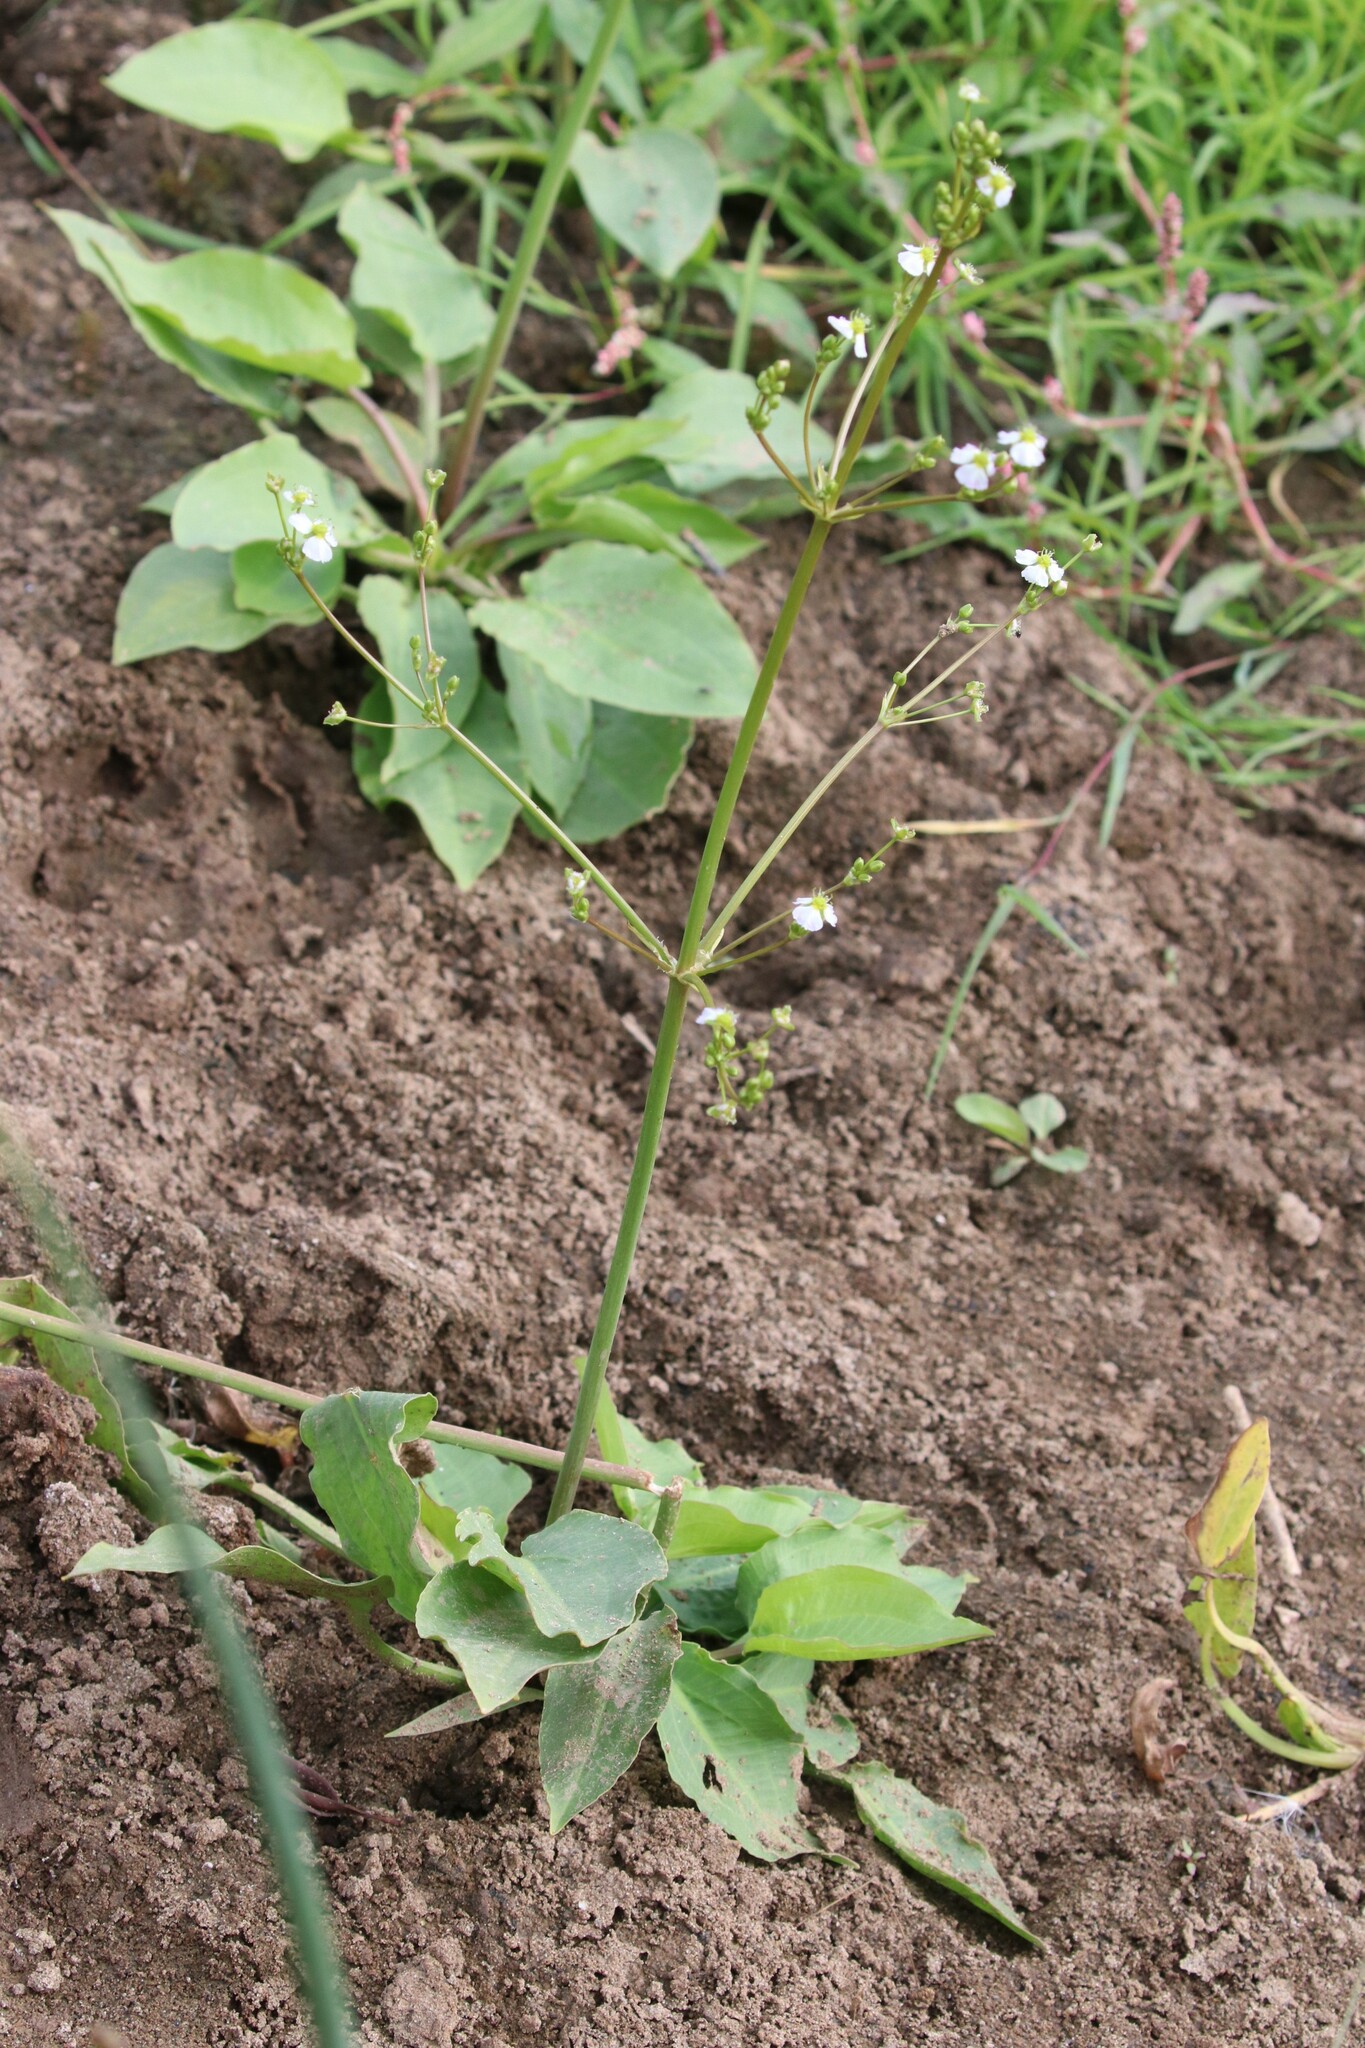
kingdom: Plantae
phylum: Tracheophyta
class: Liliopsida
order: Alismatales
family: Alismataceae
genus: Alisma
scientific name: Alisma plantago-aquatica
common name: Water-plantain
